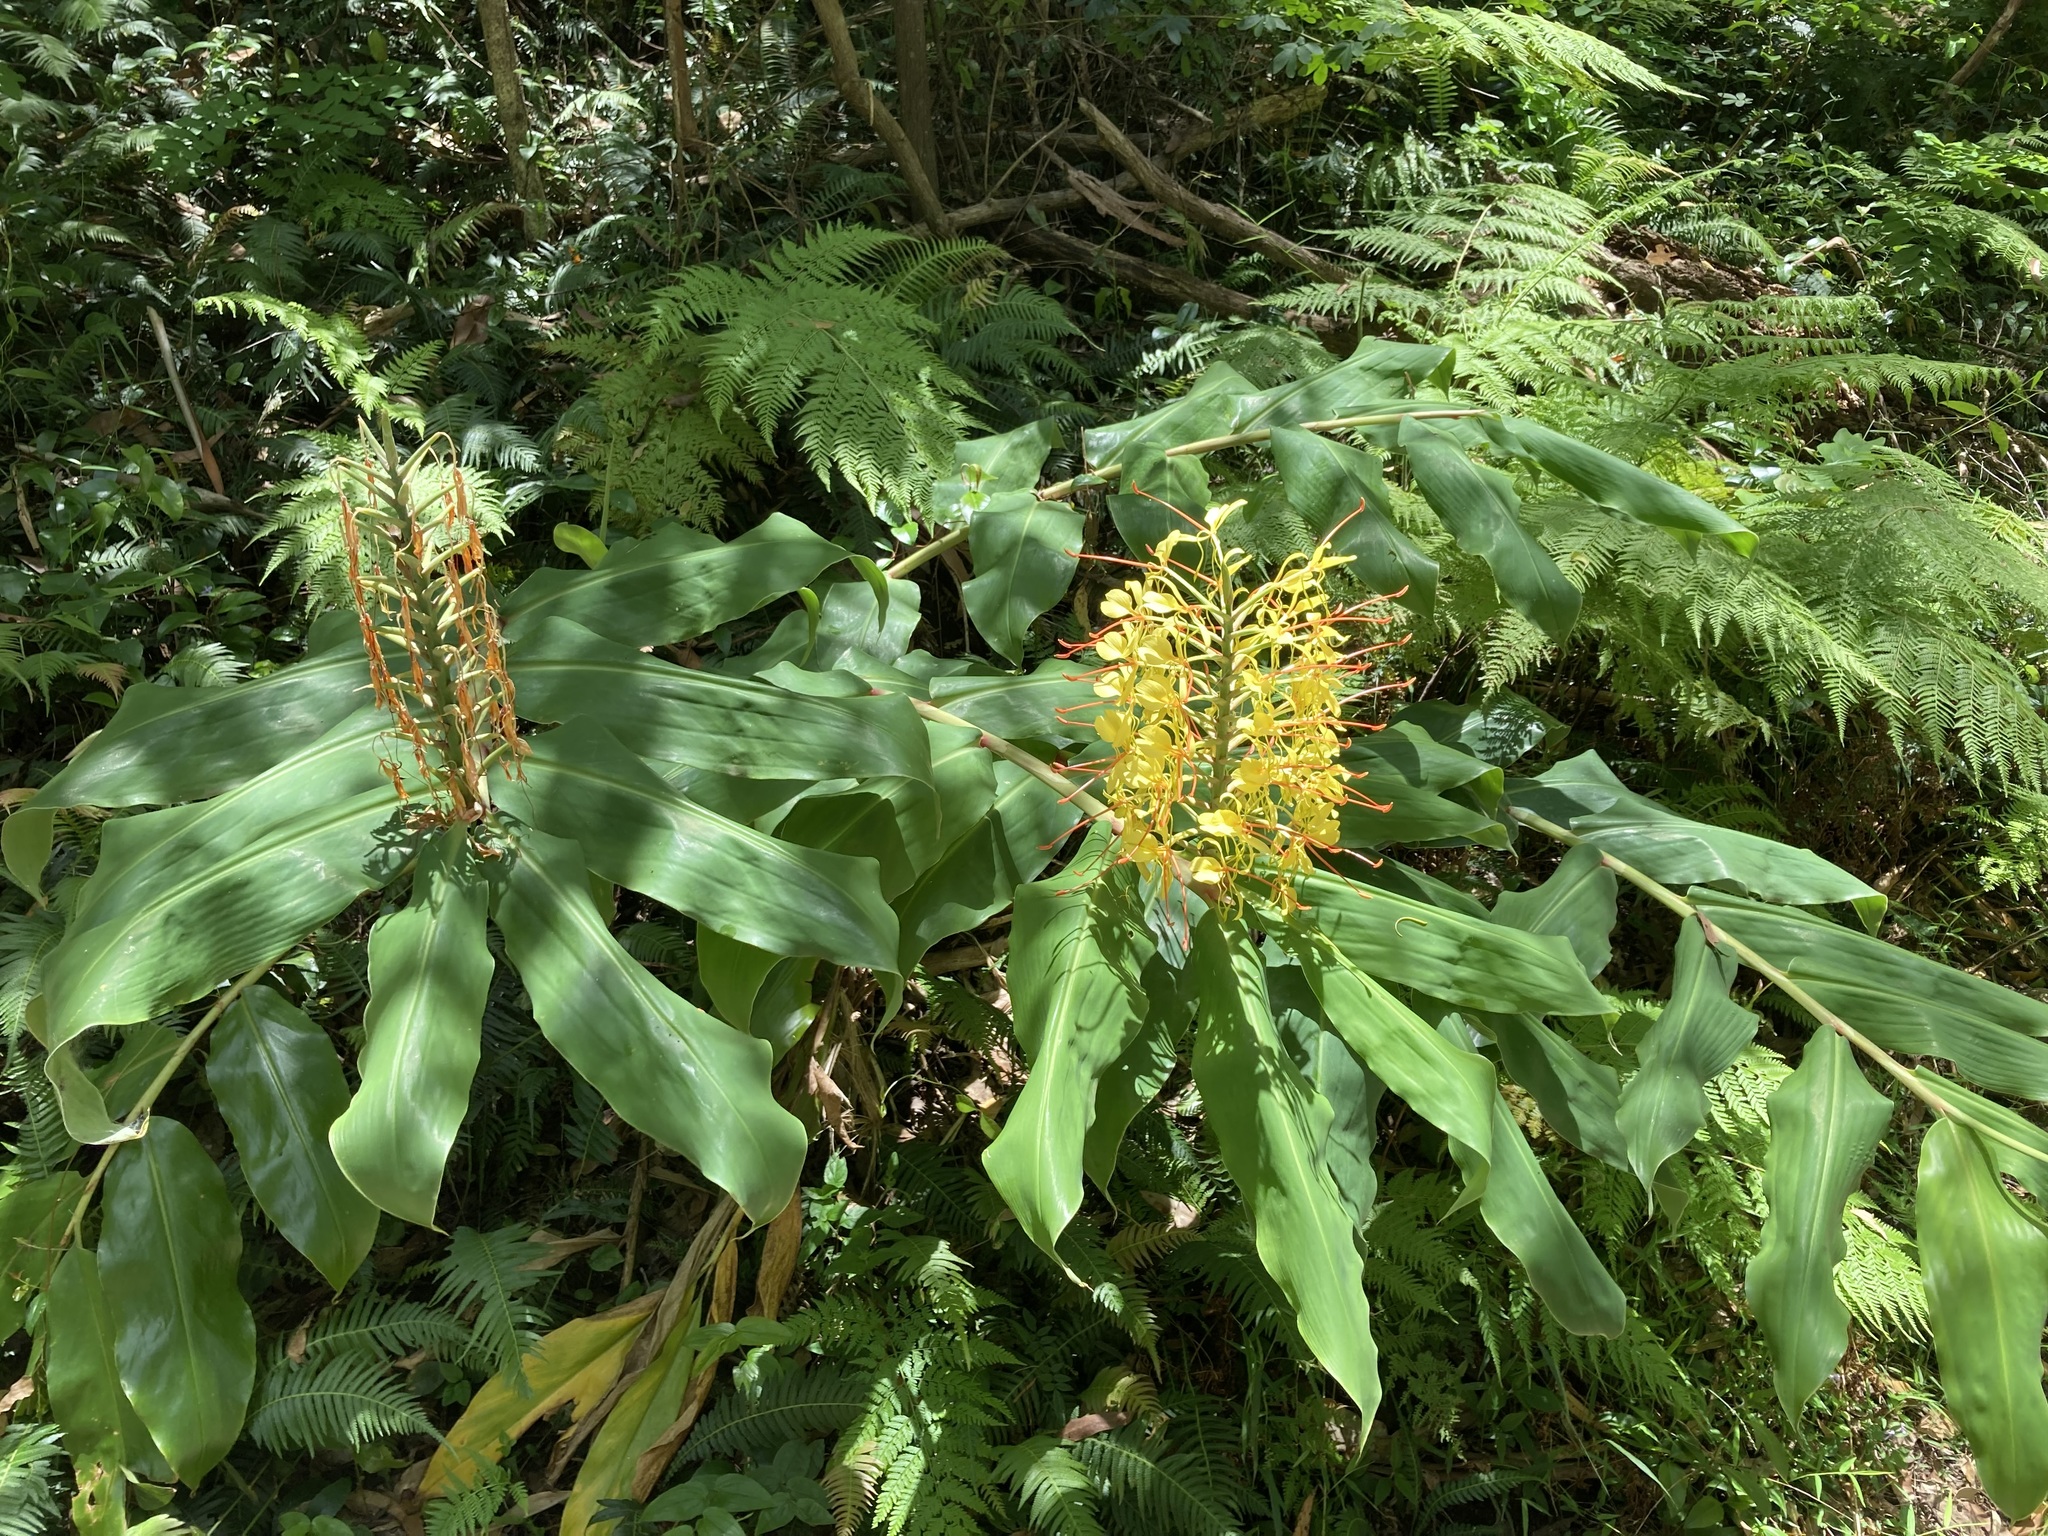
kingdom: Plantae
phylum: Tracheophyta
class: Liliopsida
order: Zingiberales
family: Zingiberaceae
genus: Hedychium
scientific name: Hedychium gardnerianum
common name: Himalayan ginger
